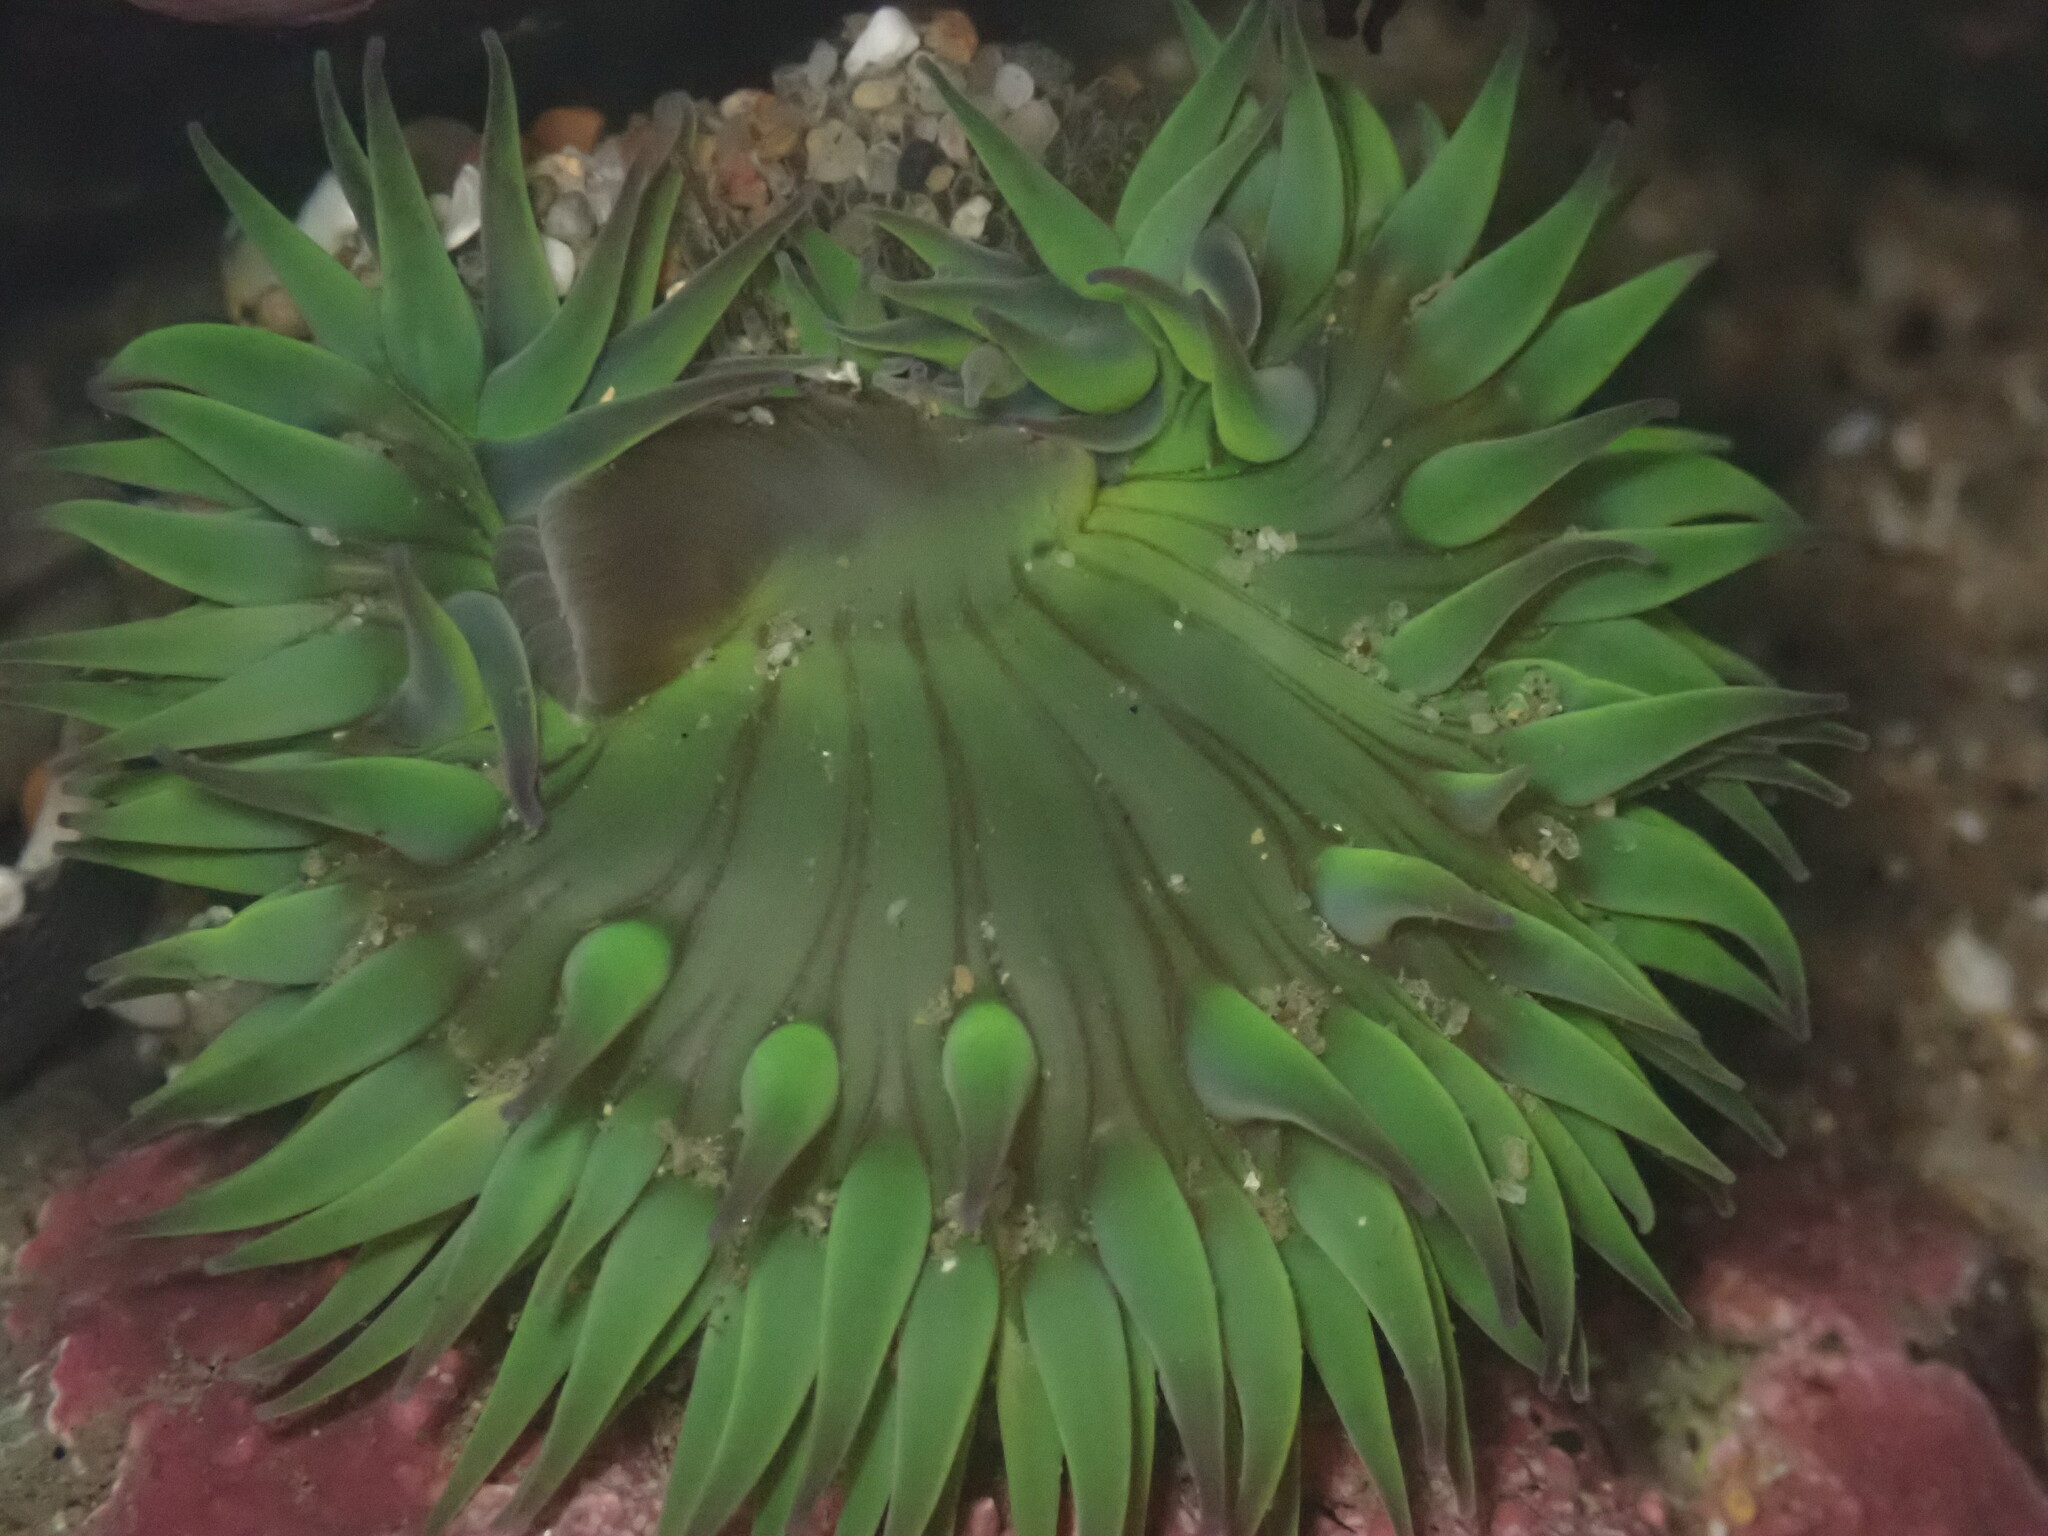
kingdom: Animalia
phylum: Cnidaria
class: Anthozoa
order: Actiniaria
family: Actiniidae
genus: Anthopleura
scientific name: Anthopleura sola
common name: Sun anemone
